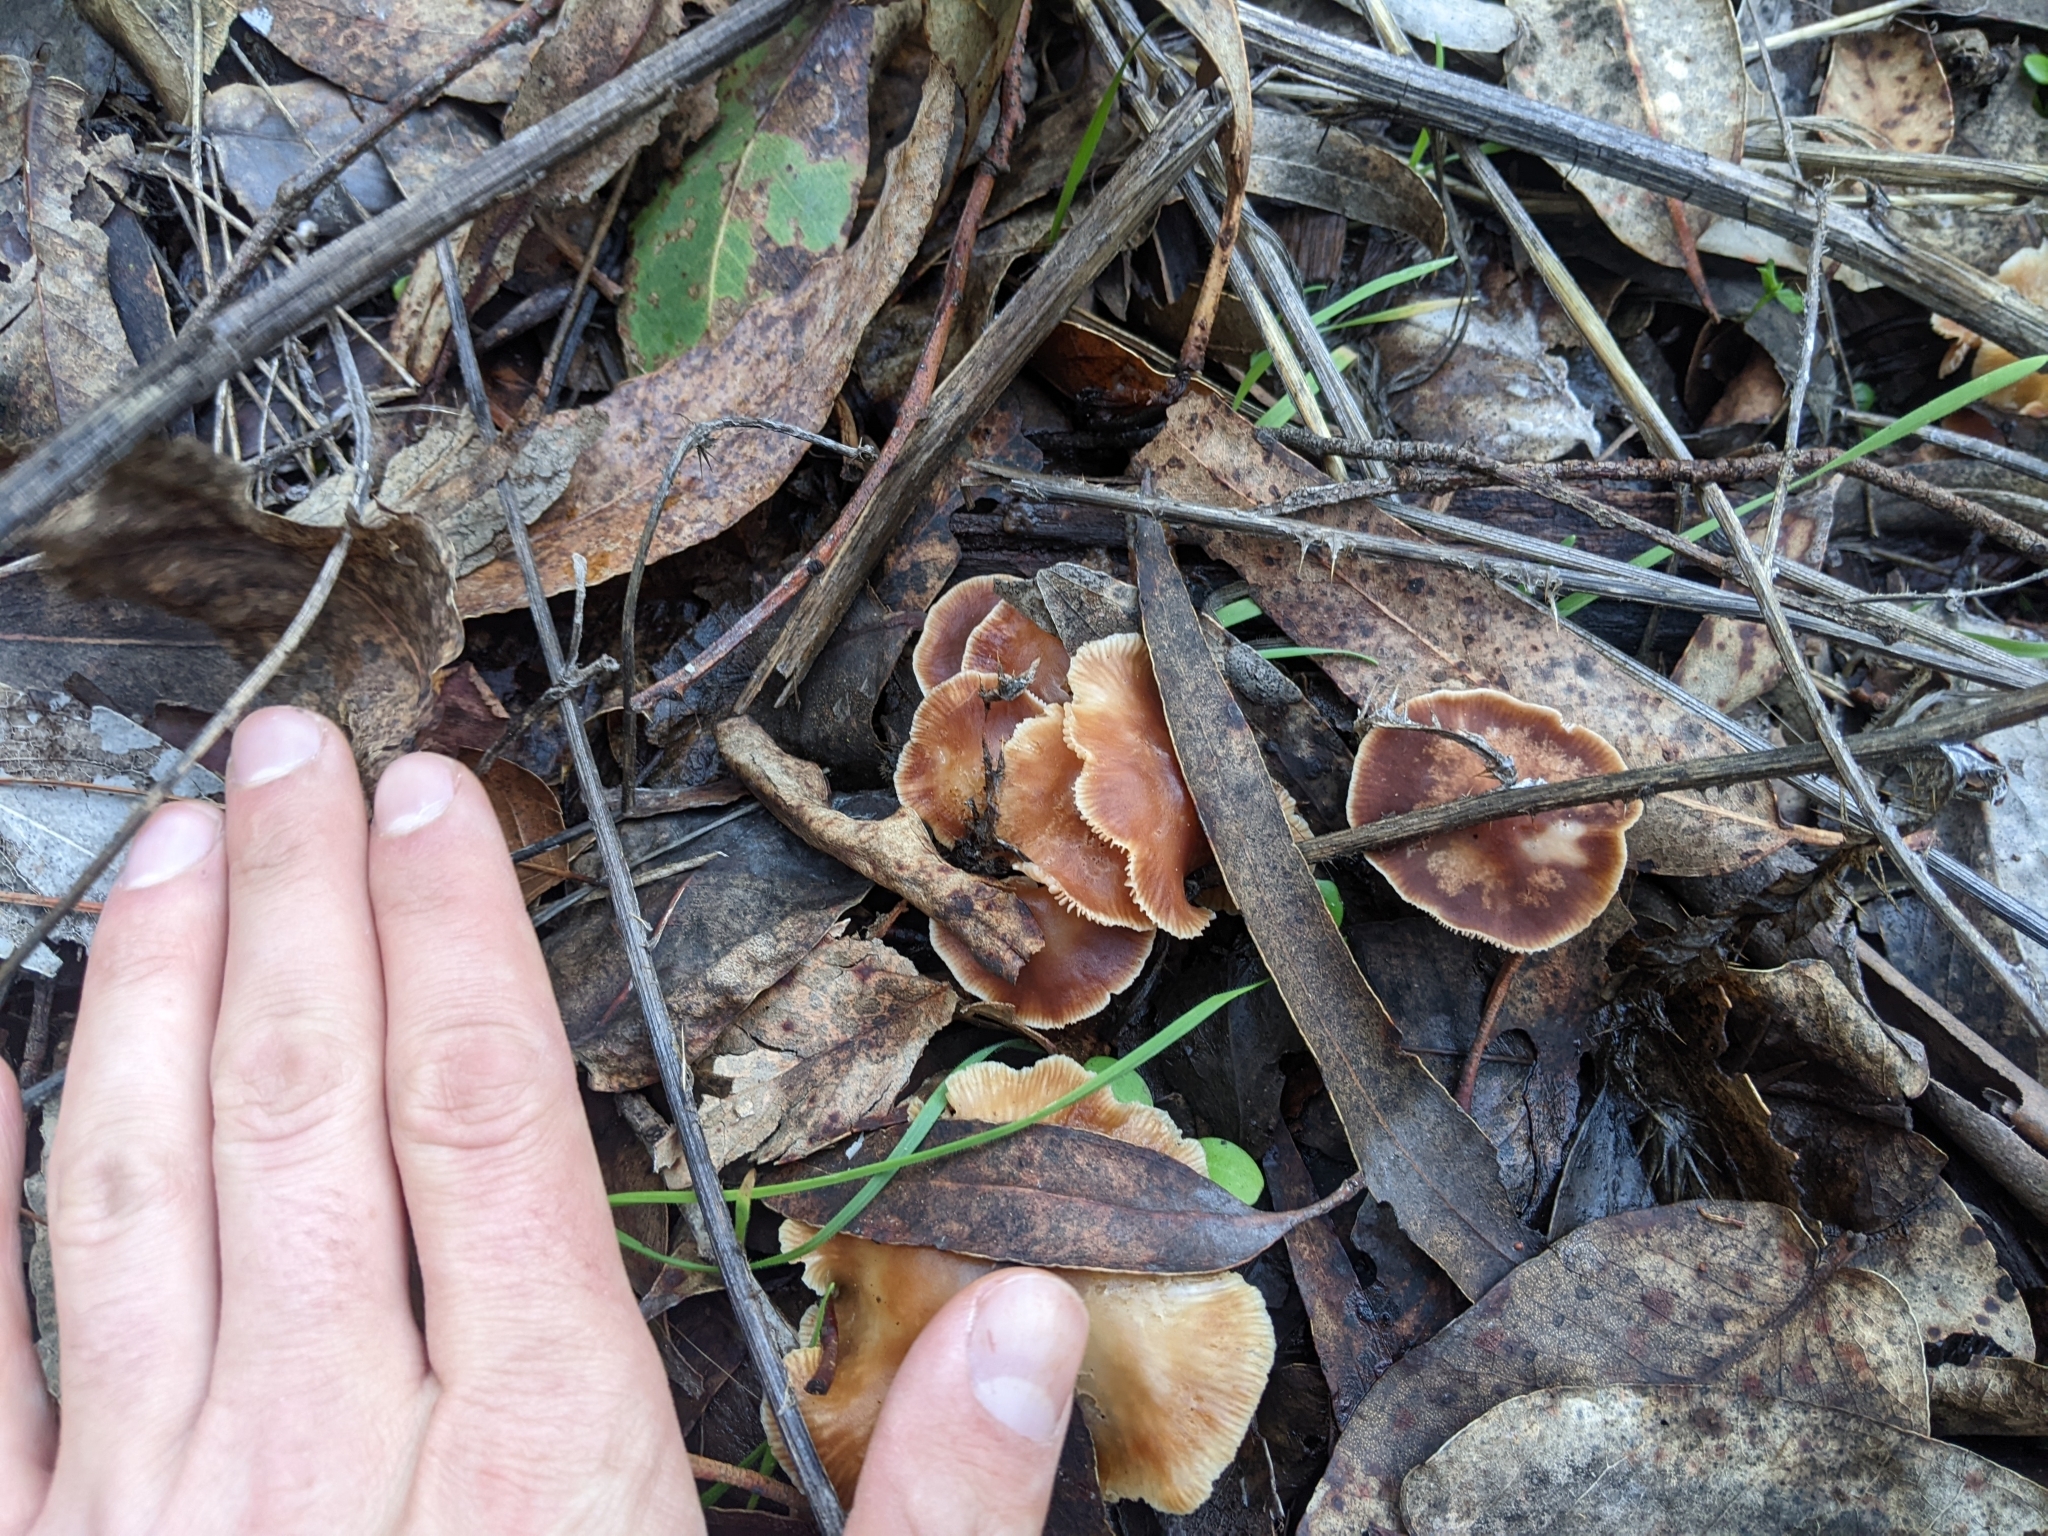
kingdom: Fungi
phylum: Basidiomycota
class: Agaricomycetes
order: Agaricales
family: Omphalotaceae
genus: Gymnopus
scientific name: Gymnopus brassicolens
